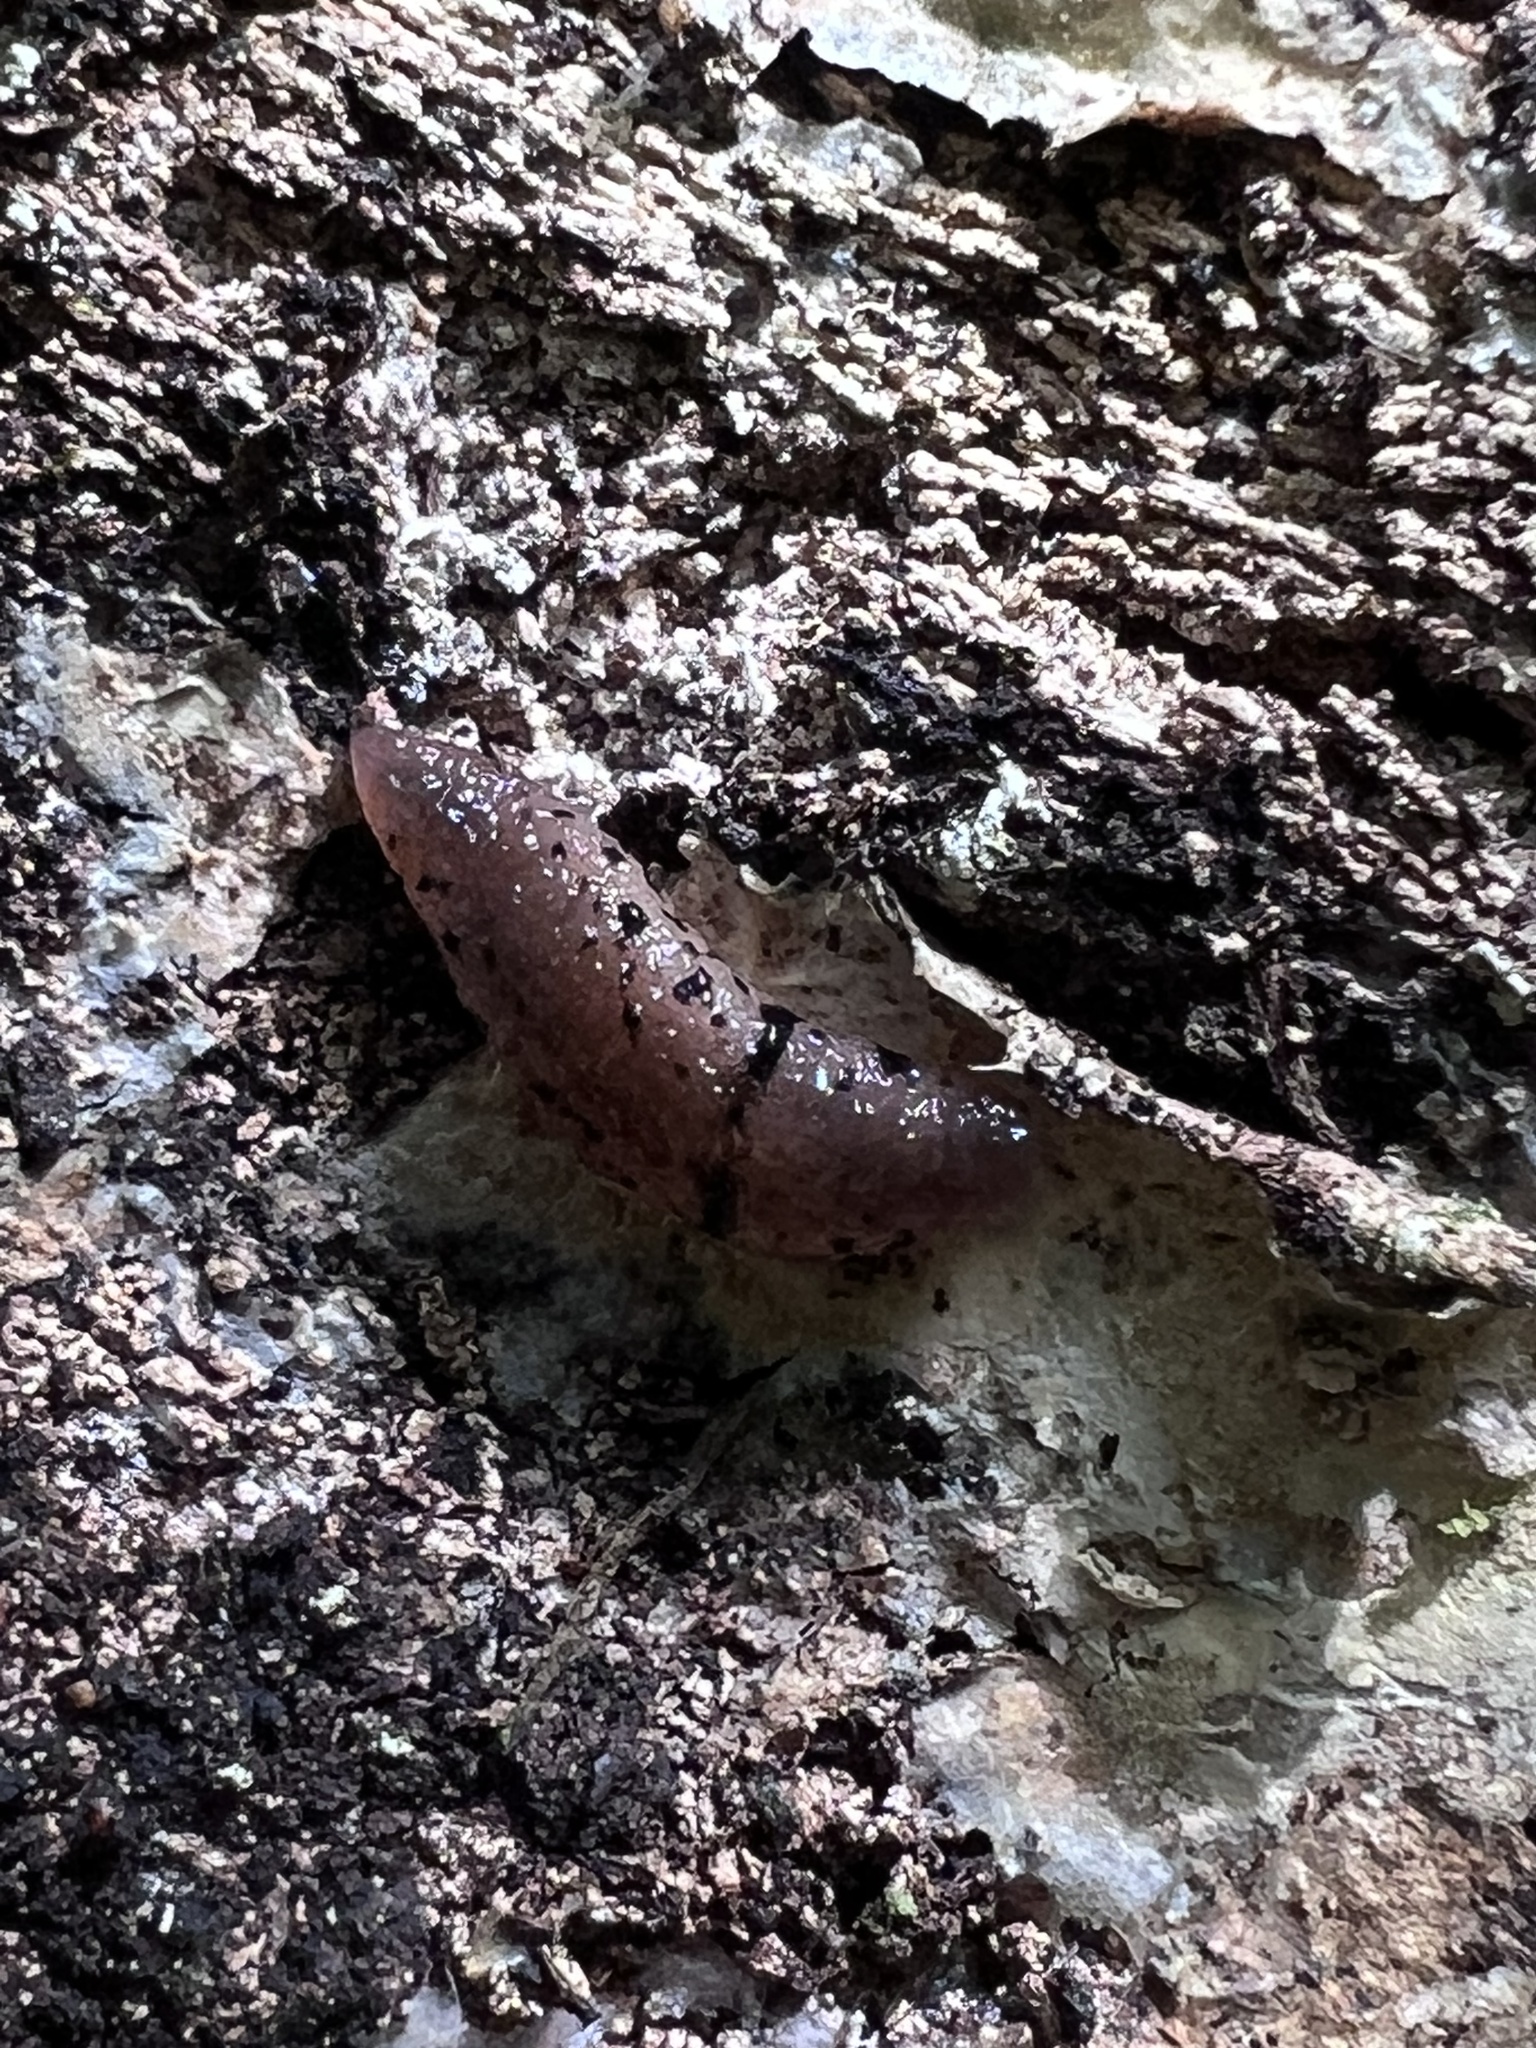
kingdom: Animalia
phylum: Mollusca
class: Gastropoda
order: Stylommatophora
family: Philomycidae
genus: Pallifera
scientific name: Pallifera costaricensis
